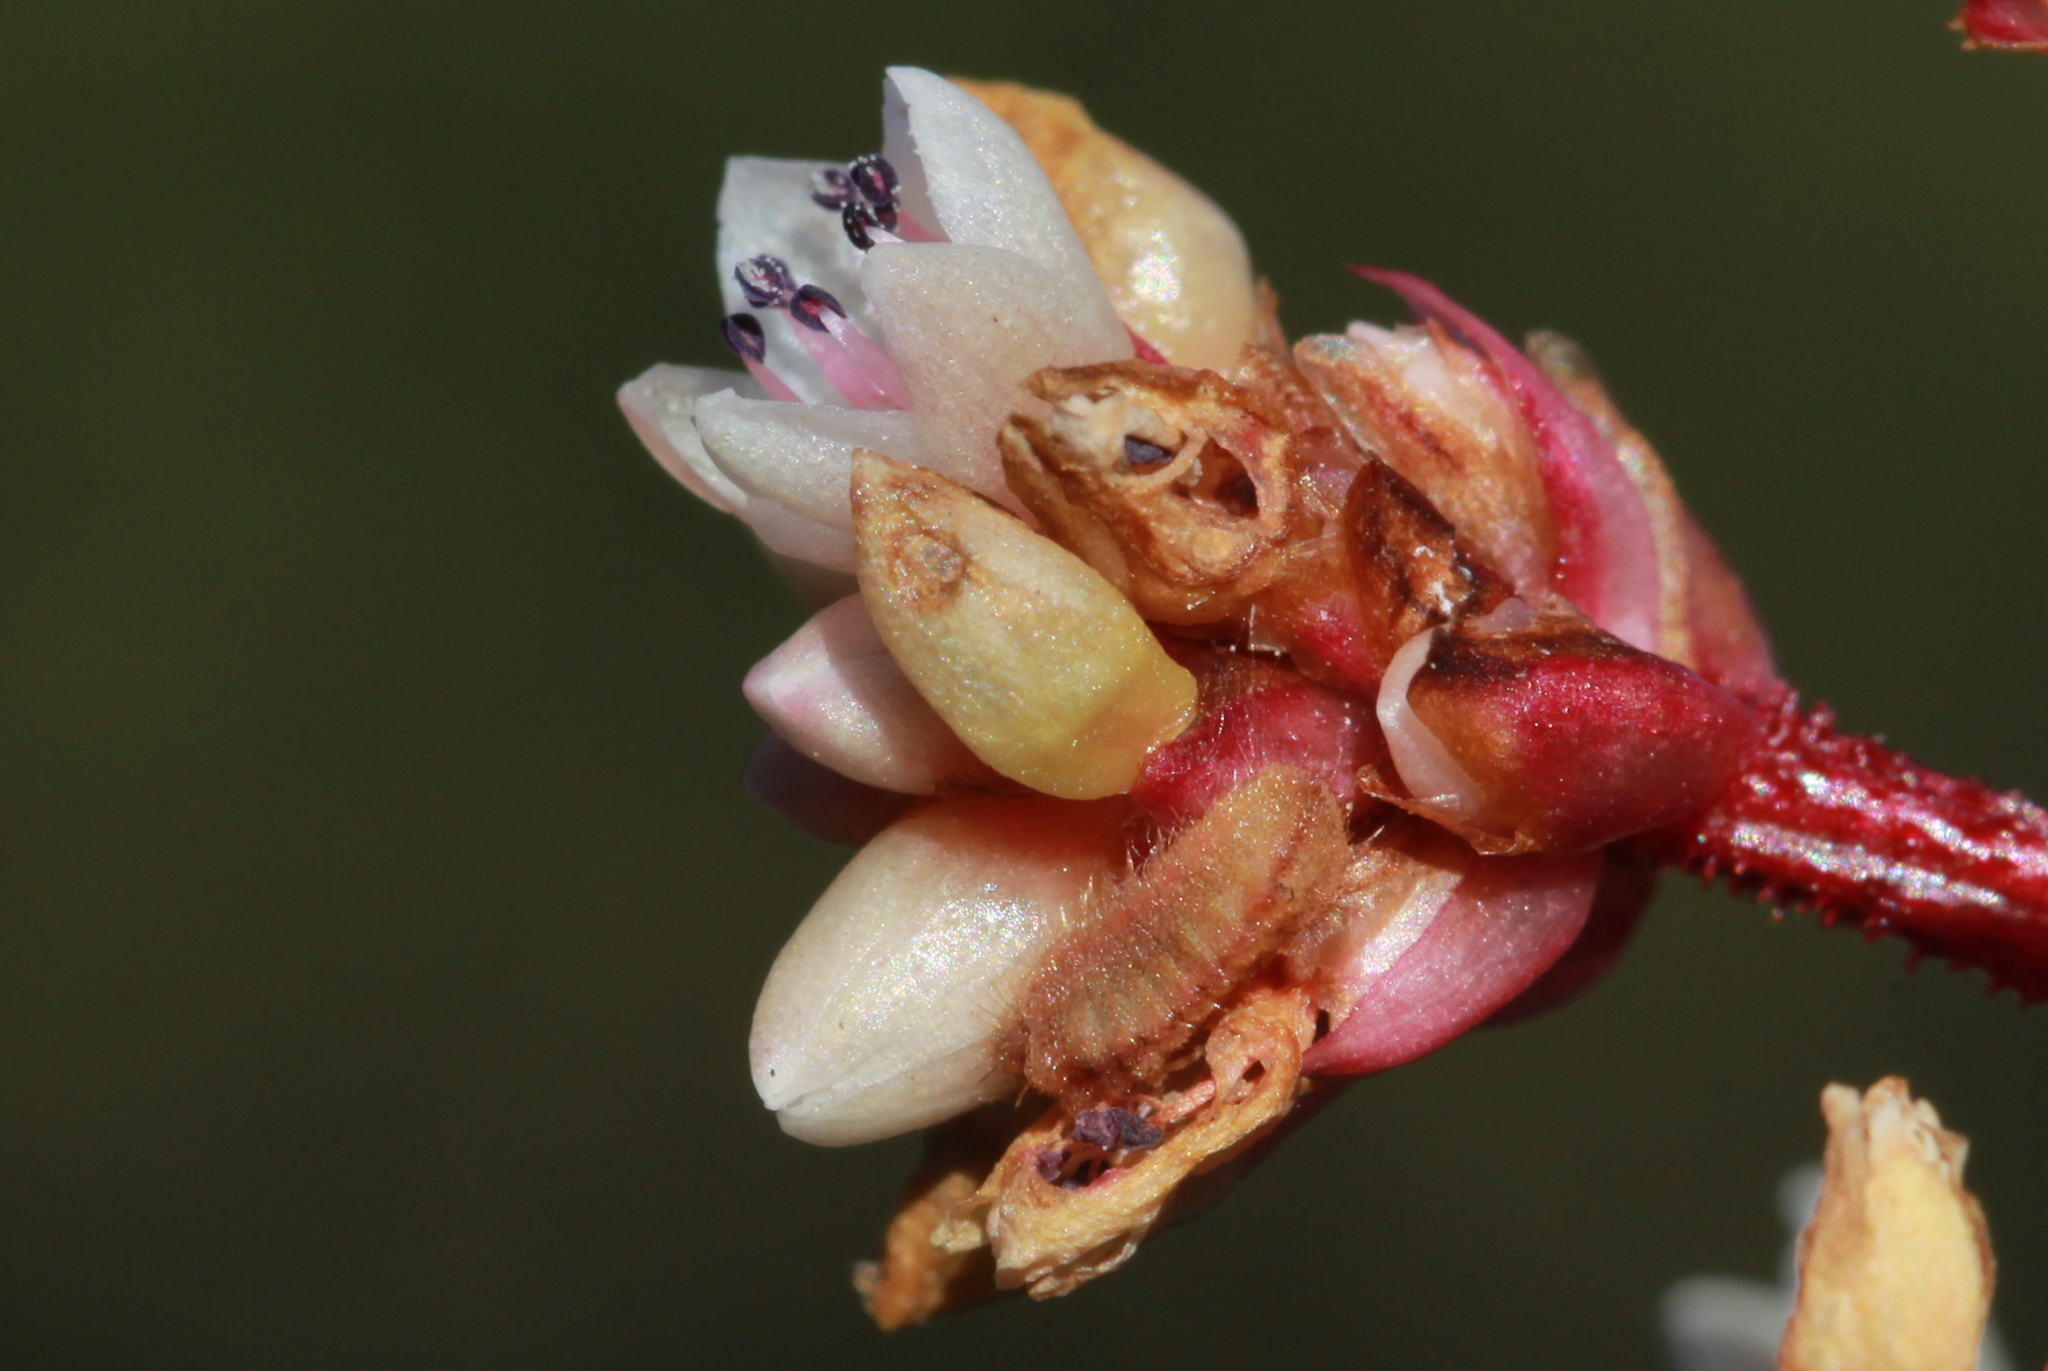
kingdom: Animalia
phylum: Arthropoda
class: Insecta
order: Lepidoptera
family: Lycaenidae
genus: Udara
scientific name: Udara akasa
